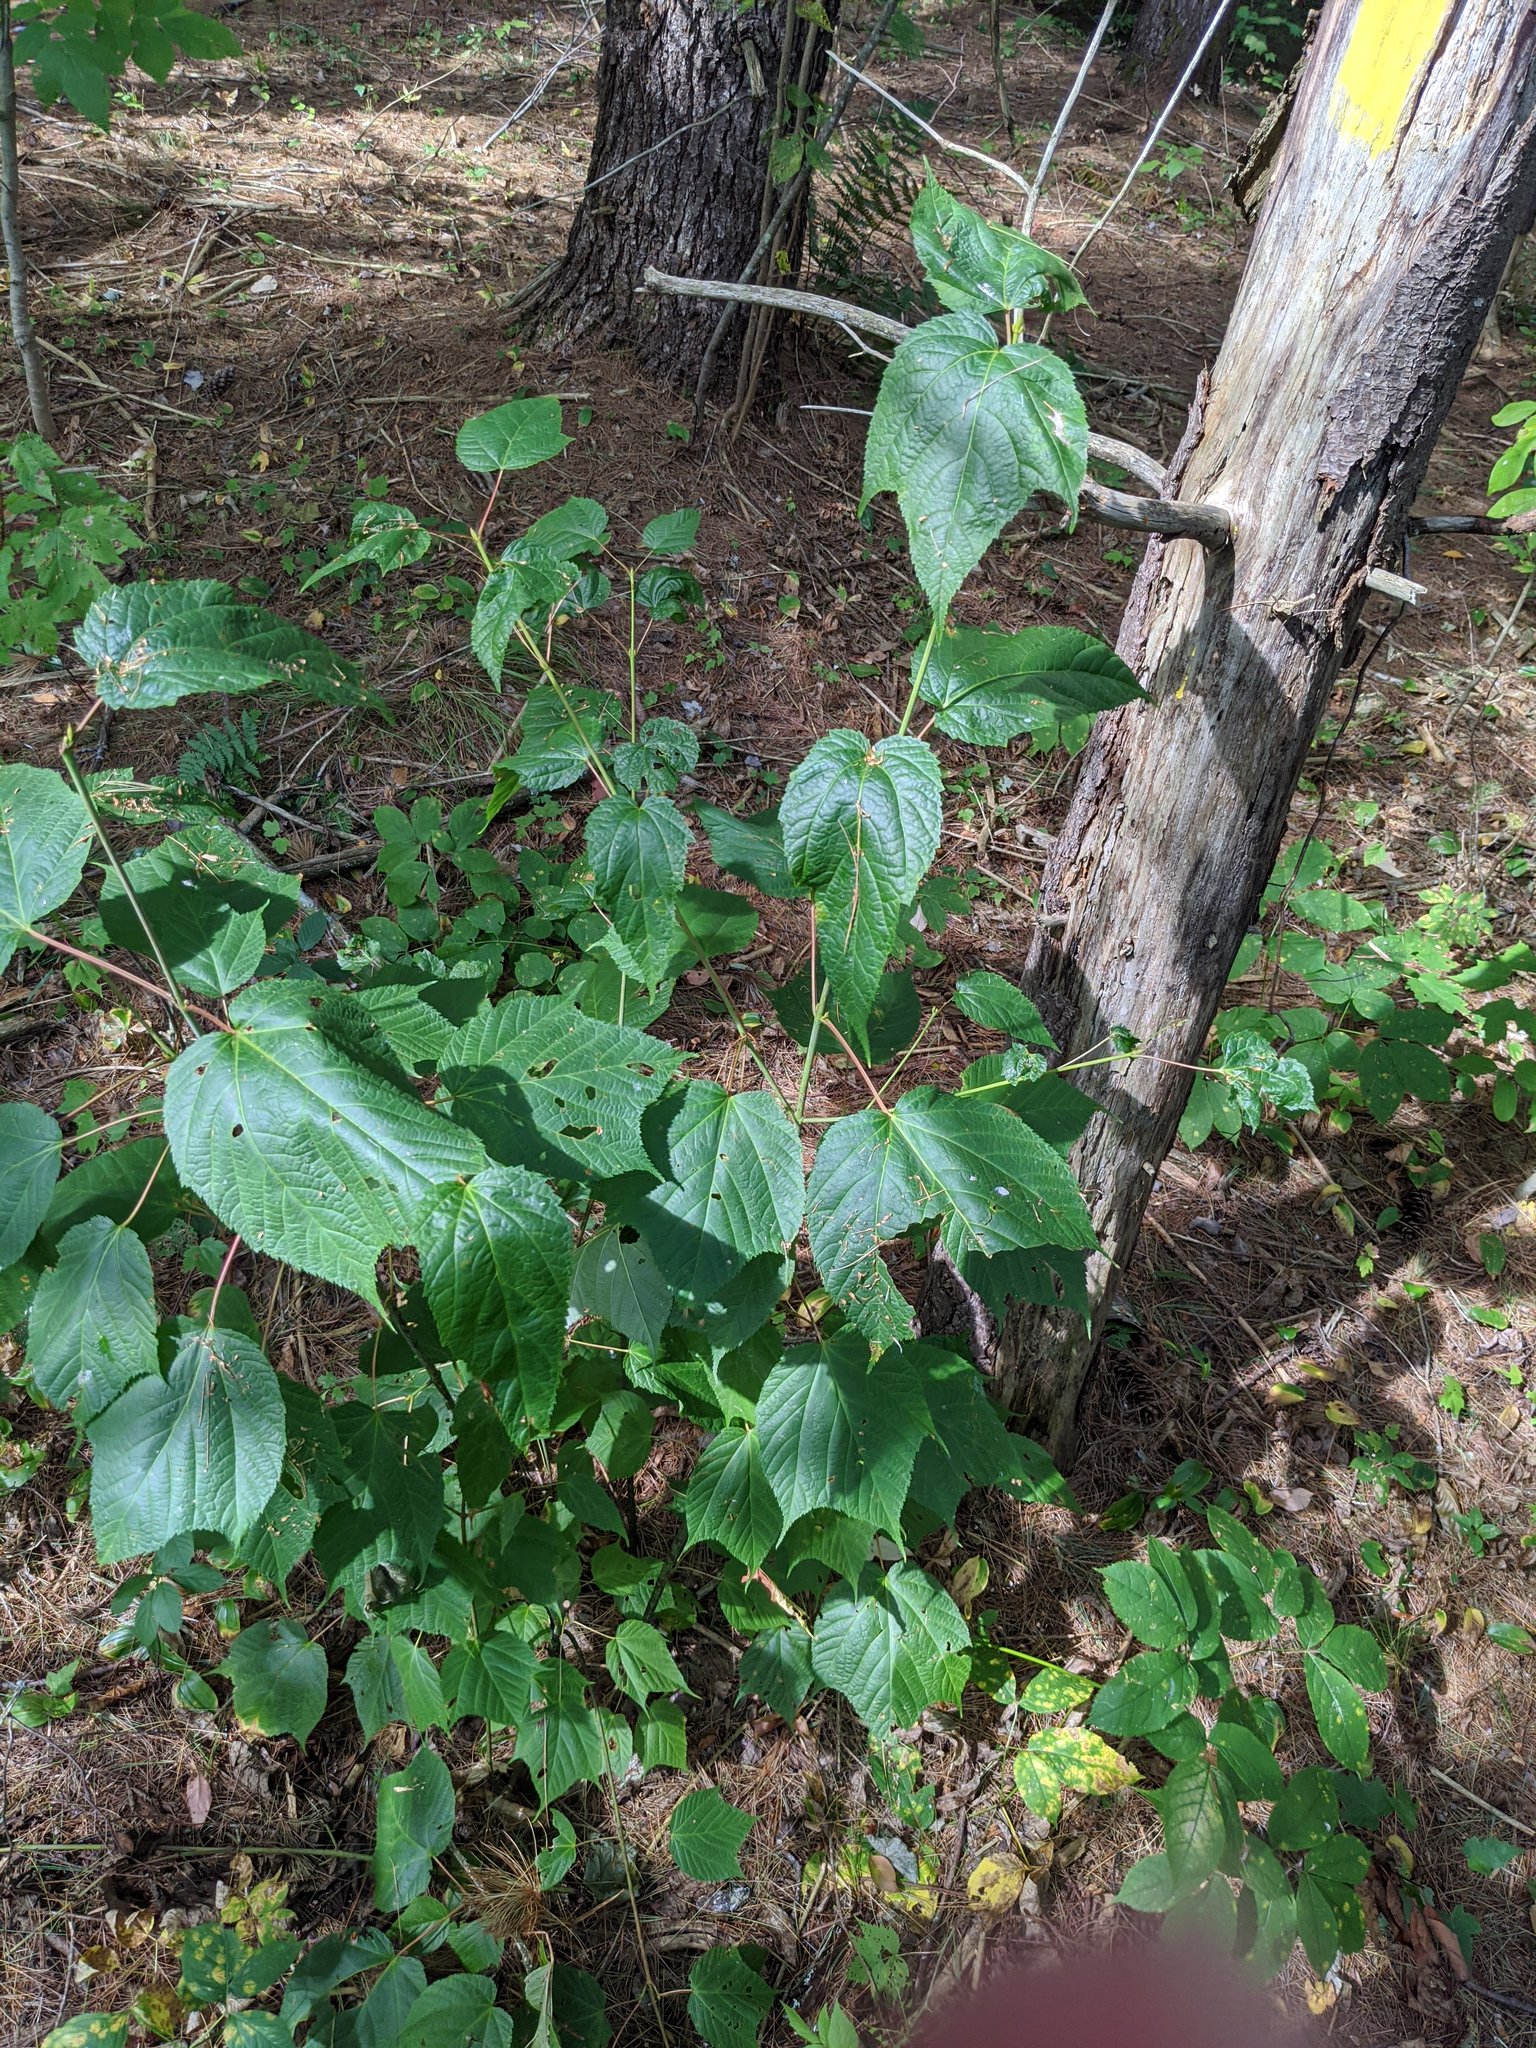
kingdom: Plantae
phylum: Tracheophyta
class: Magnoliopsida
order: Sapindales
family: Sapindaceae
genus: Acer
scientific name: Acer pensylvanicum
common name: Moosewood
